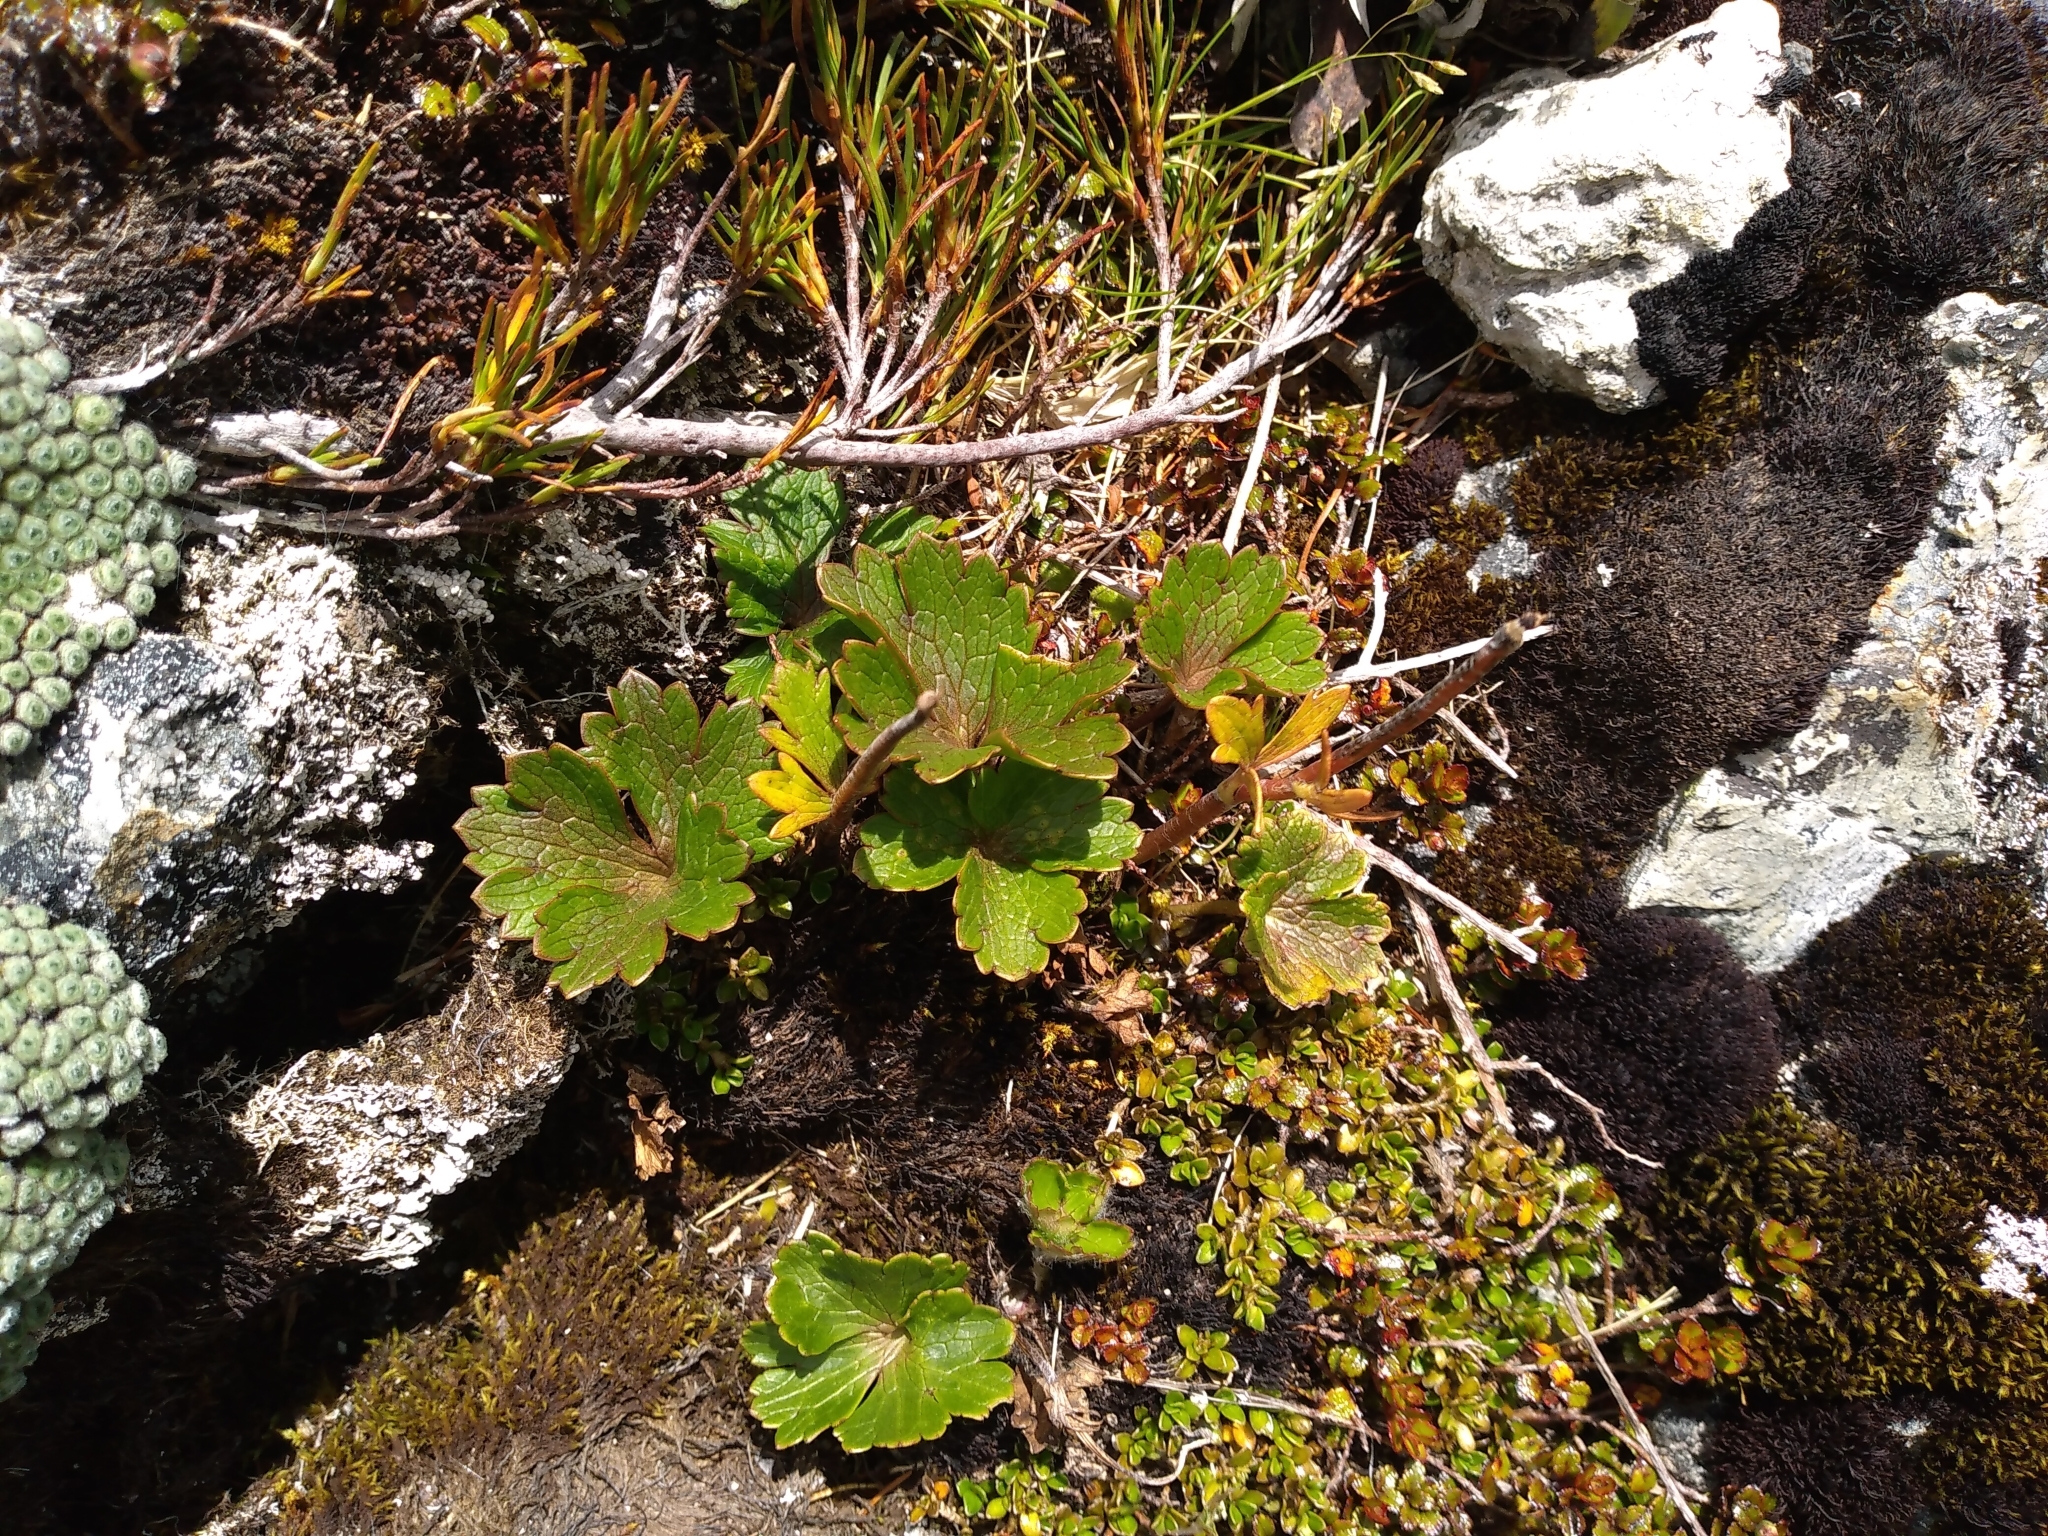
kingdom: Plantae
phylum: Tracheophyta
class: Magnoliopsida
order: Ranunculales
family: Ranunculaceae
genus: Ranunculus
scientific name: Ranunculus verticillatus
